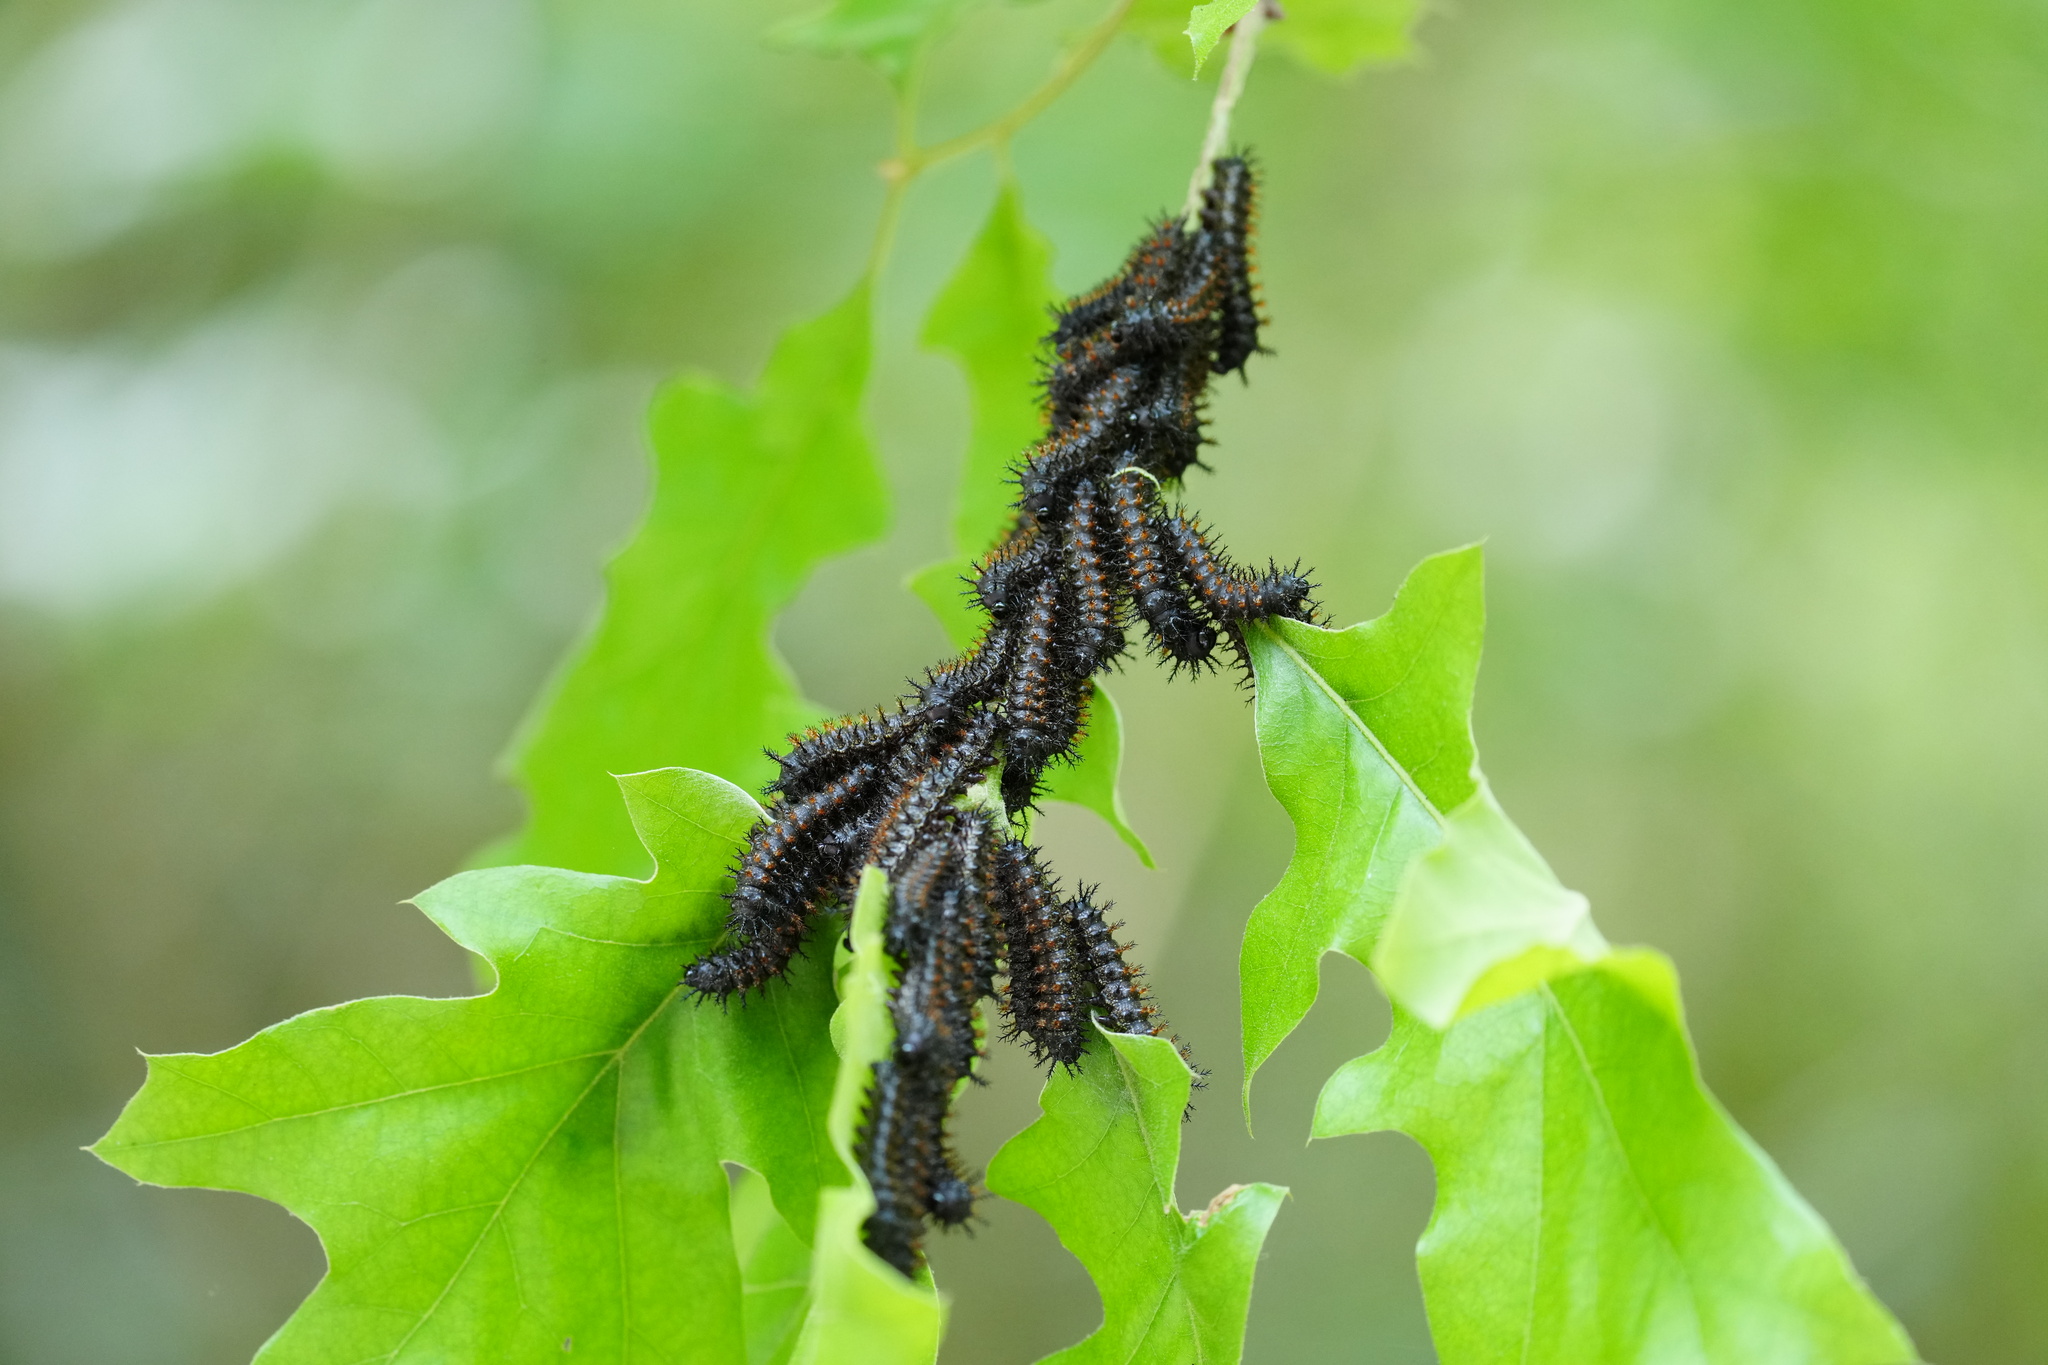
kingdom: Animalia
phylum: Arthropoda
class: Insecta
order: Lepidoptera
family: Saturniidae
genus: Hemileuca
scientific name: Hemileuca maia
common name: Eastern buckmoth
